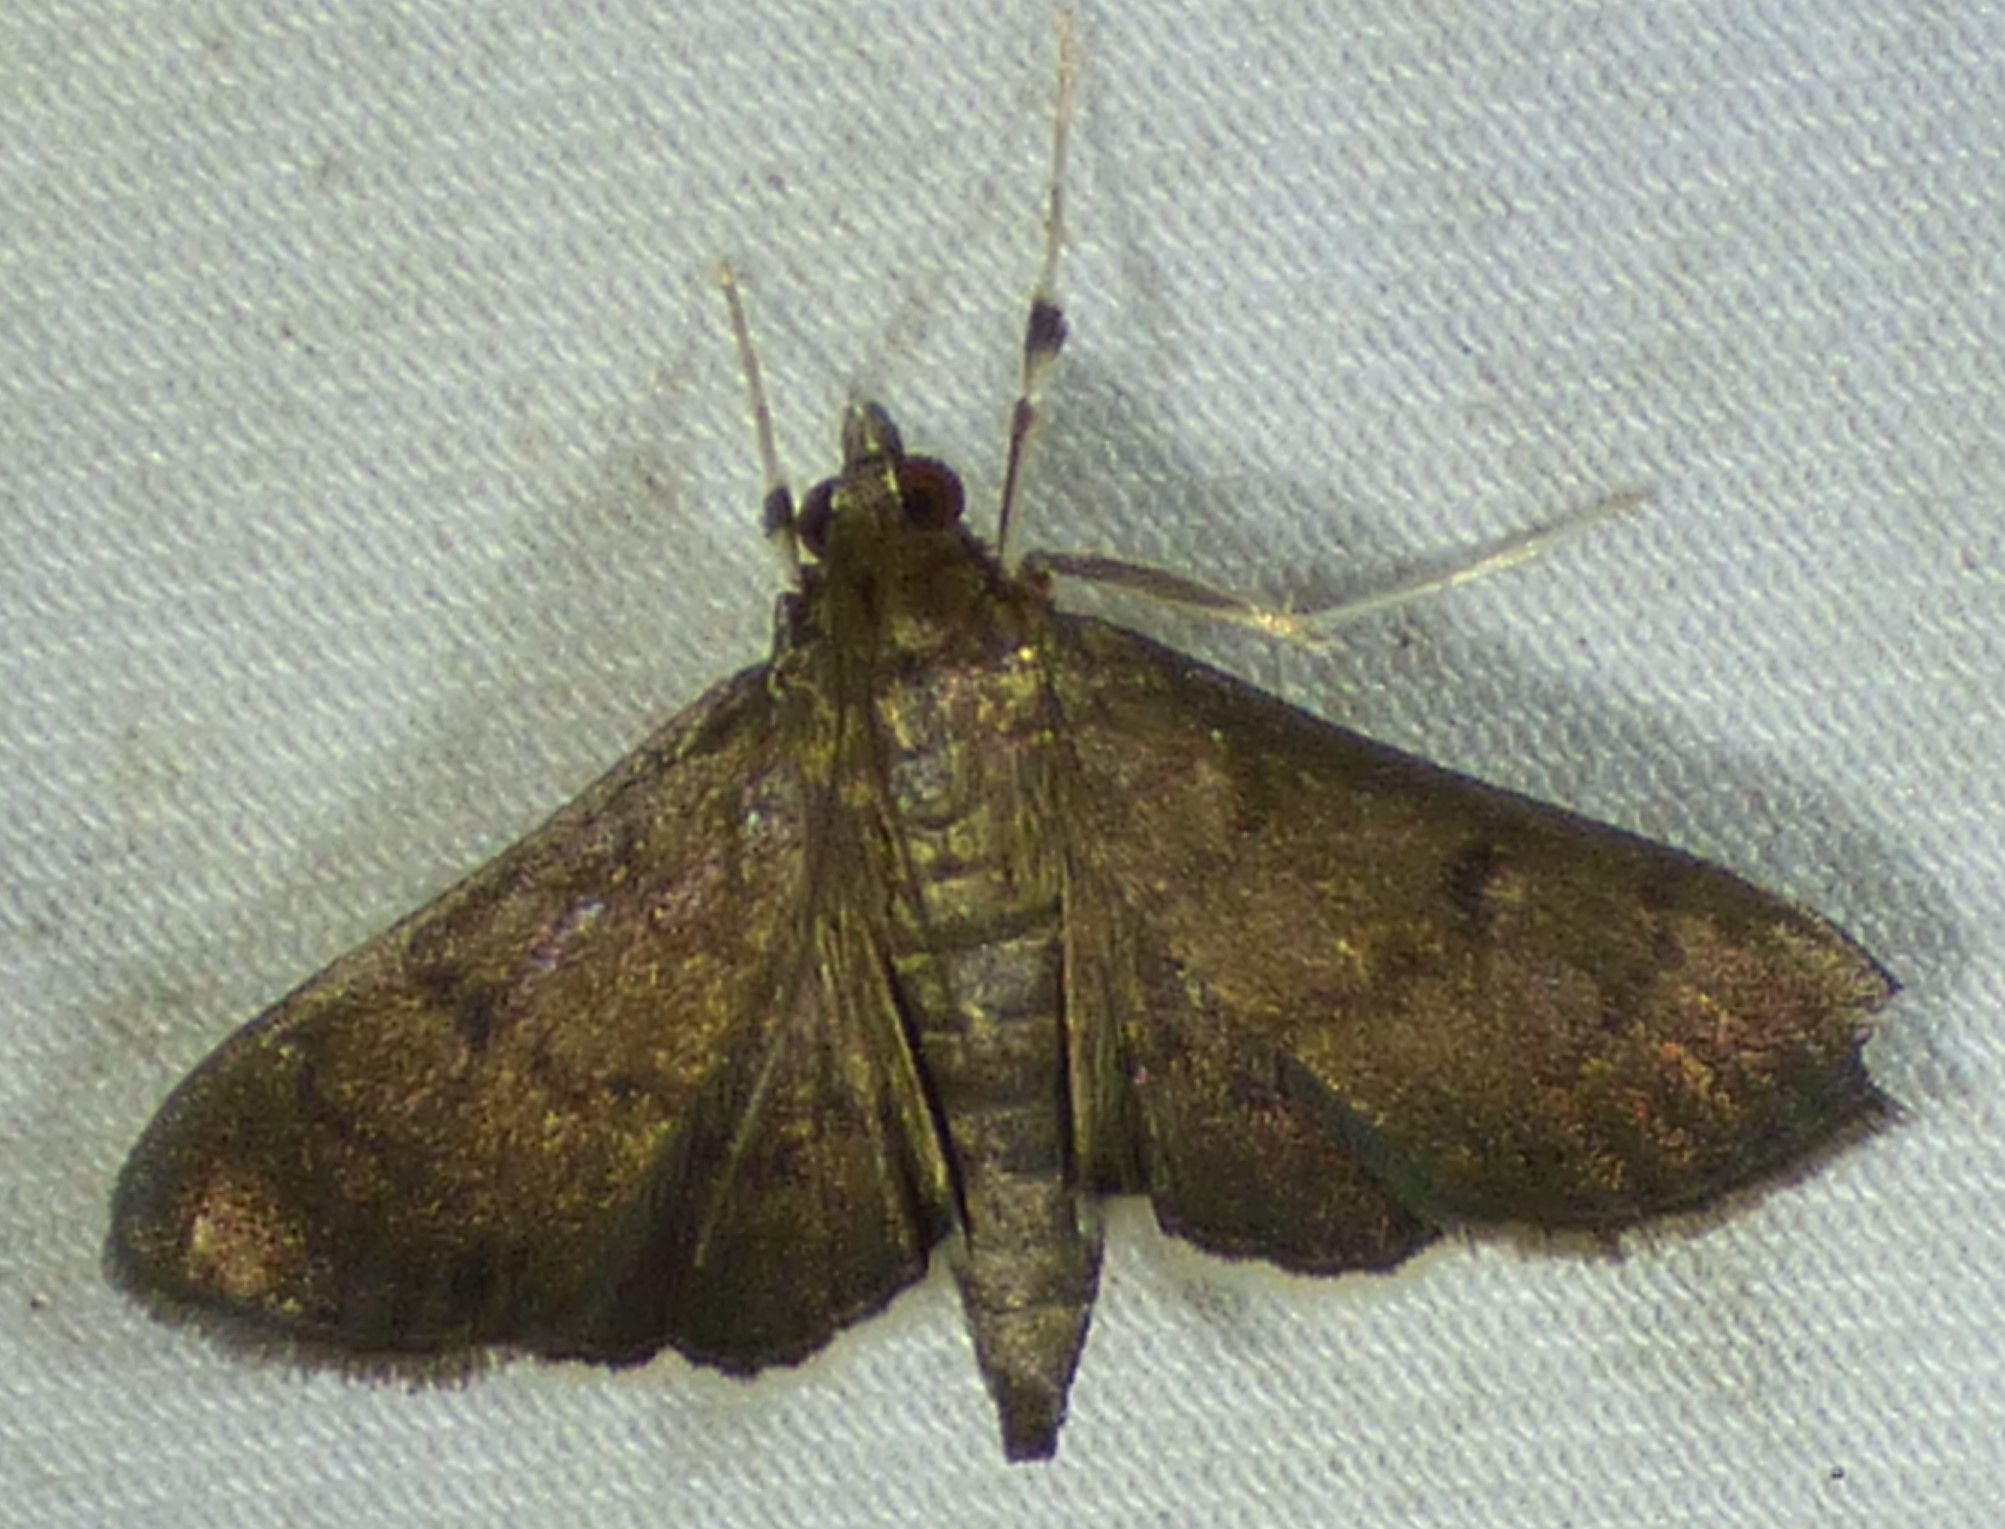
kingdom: Animalia
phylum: Arthropoda
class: Insecta
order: Lepidoptera
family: Crambidae
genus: Herpetogramma
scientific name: Herpetogramma phaeopteralis
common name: Dusky herpetogramma moth
